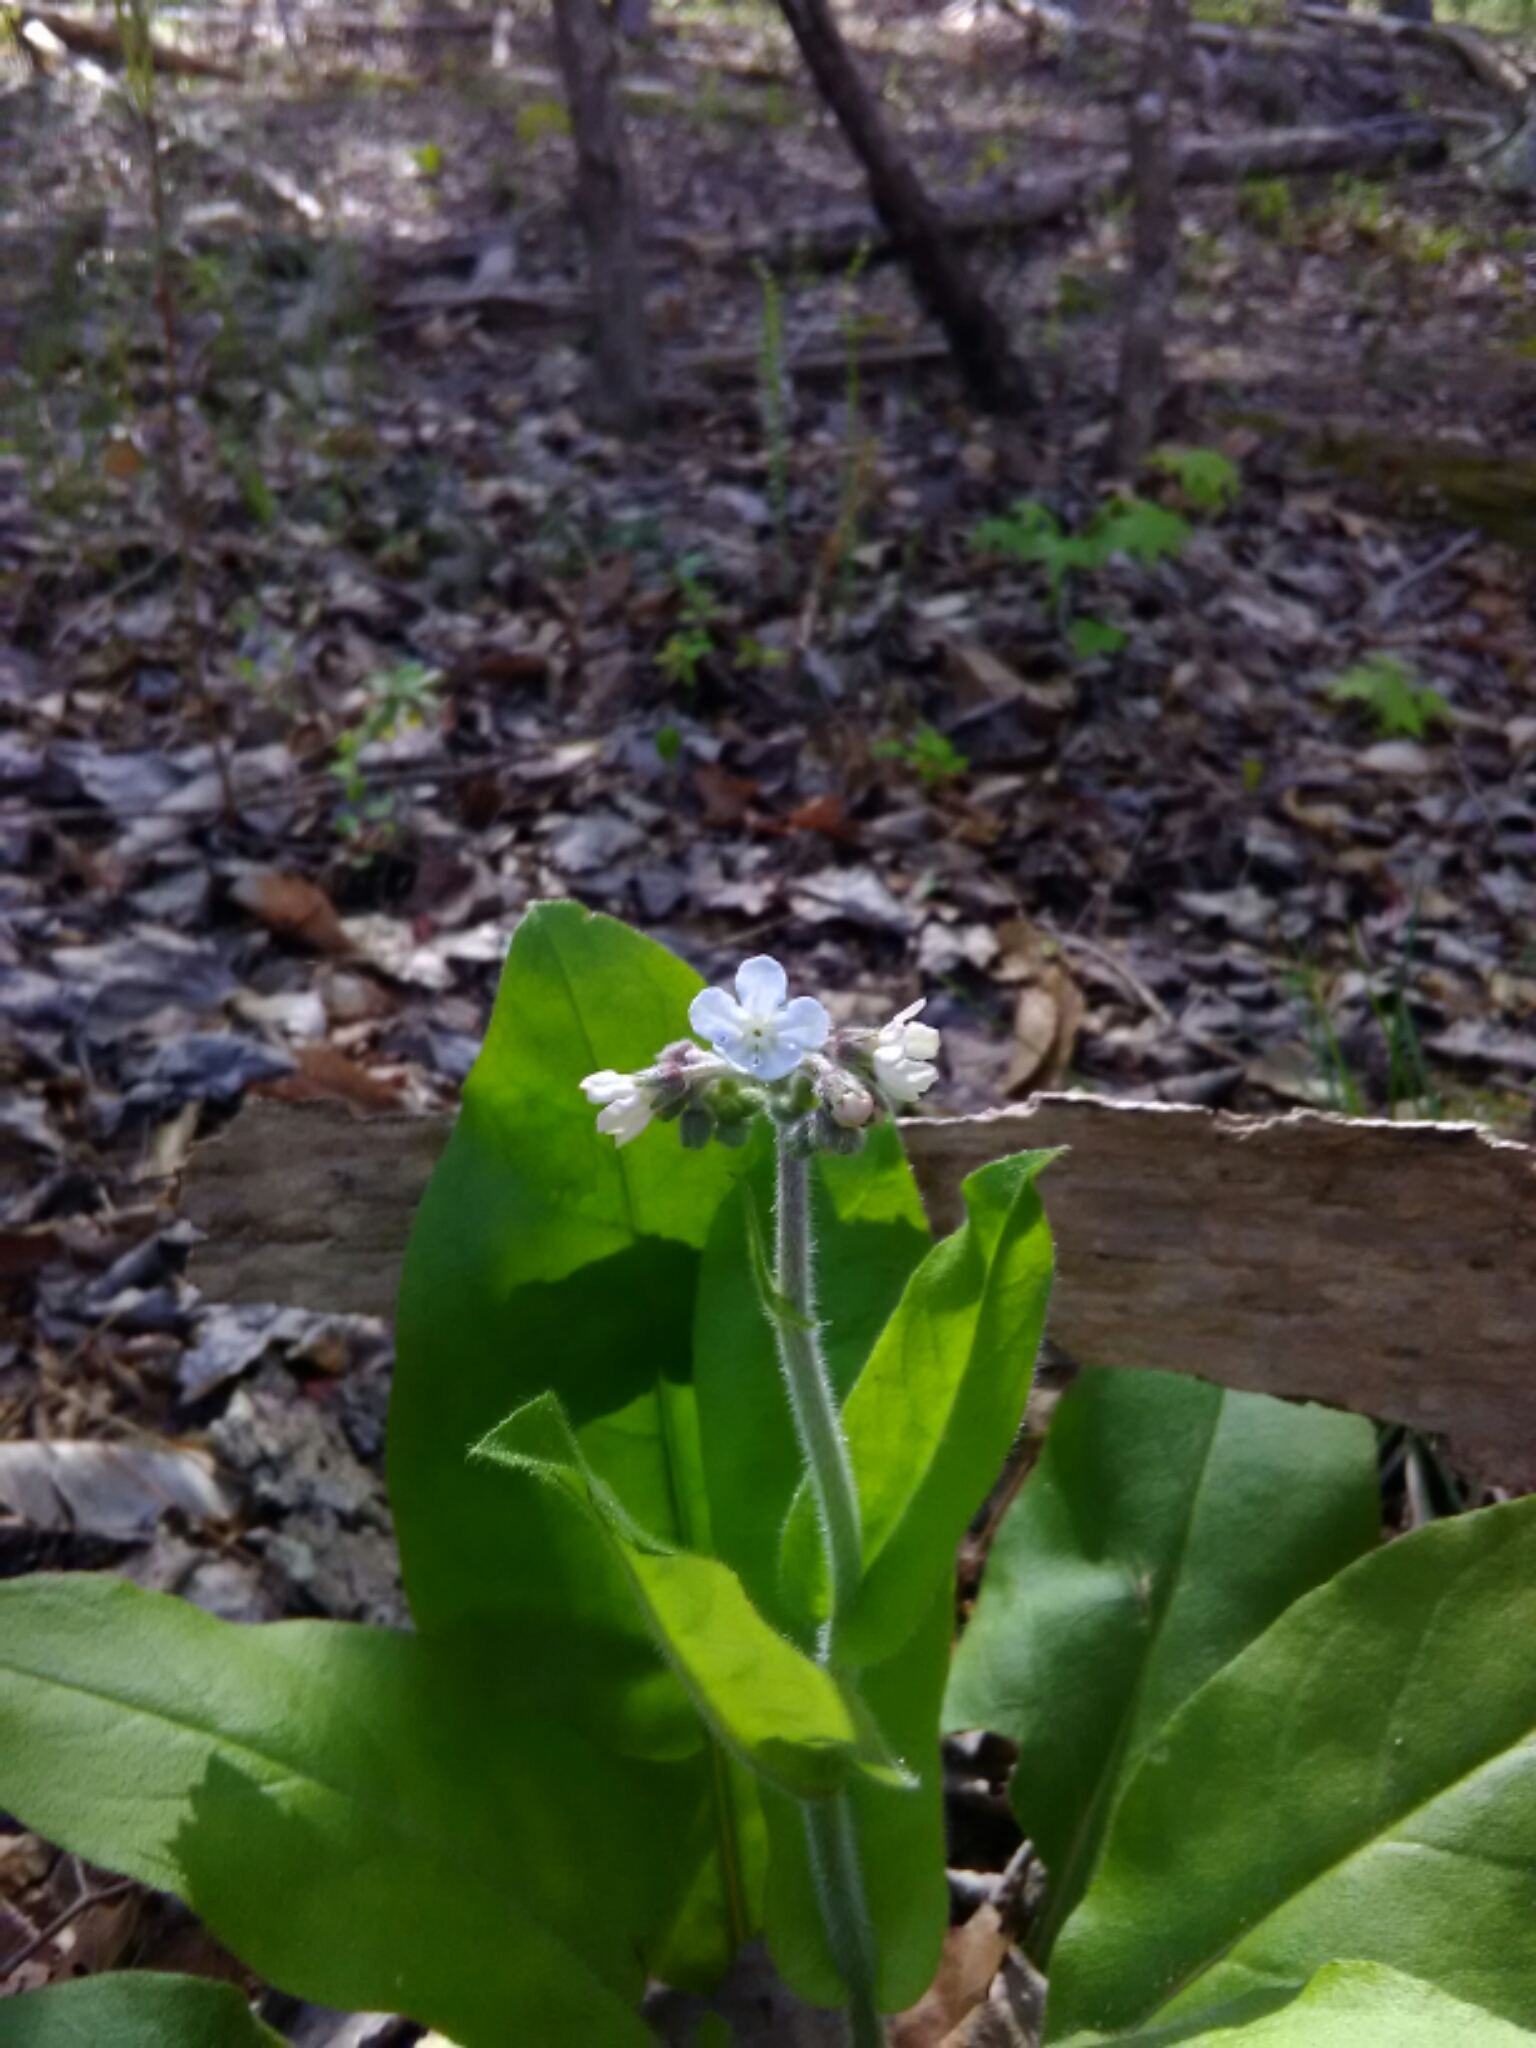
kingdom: Plantae
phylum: Tracheophyta
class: Magnoliopsida
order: Boraginales
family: Boraginaceae
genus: Andersonglossum
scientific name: Andersonglossum virginianum
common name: Wild comfrey
